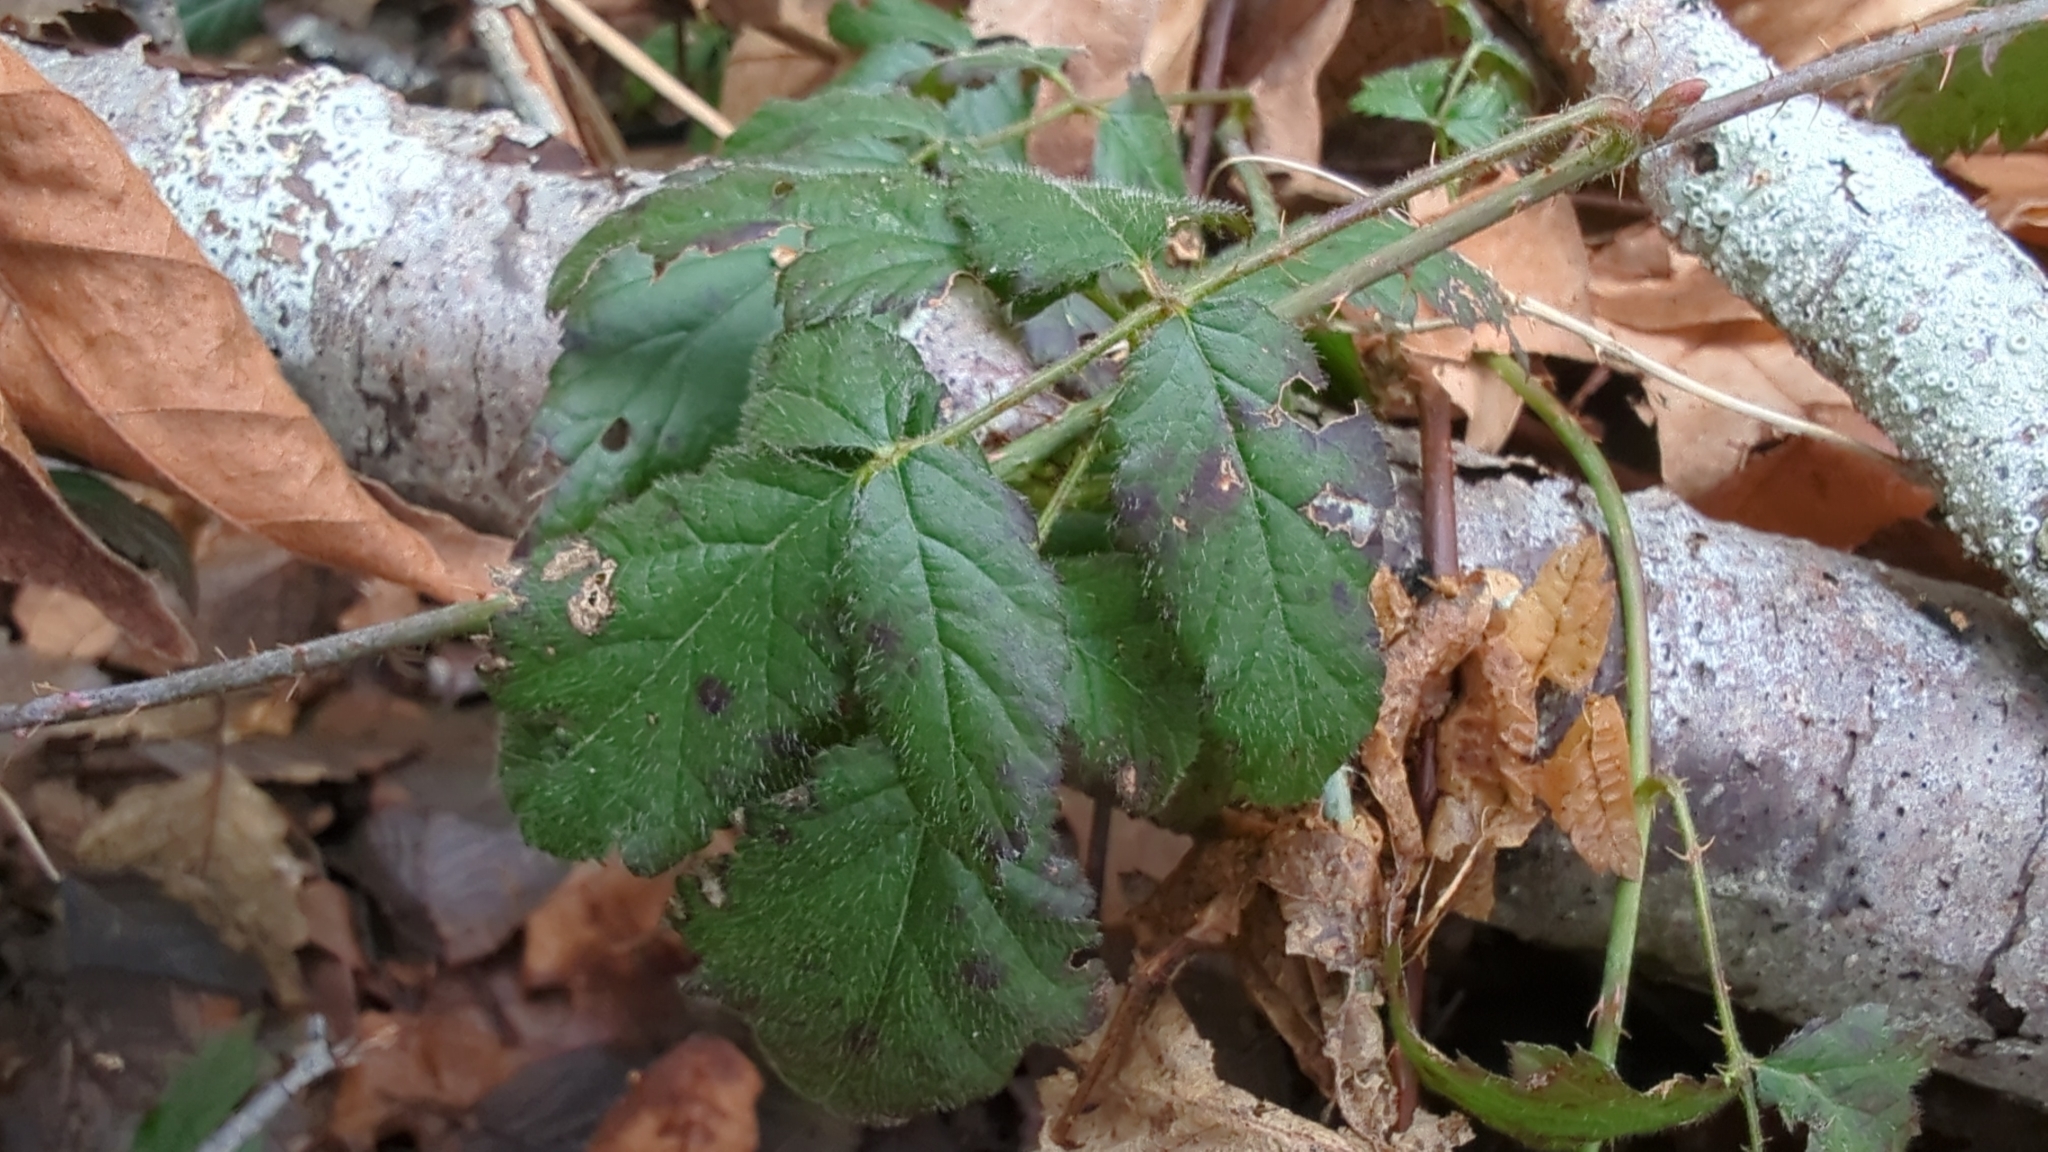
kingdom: Plantae
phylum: Tracheophyta
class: Magnoliopsida
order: Rosales
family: Rosaceae
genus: Rubus
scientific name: Rubus ursinus
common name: Pacific blackberry
